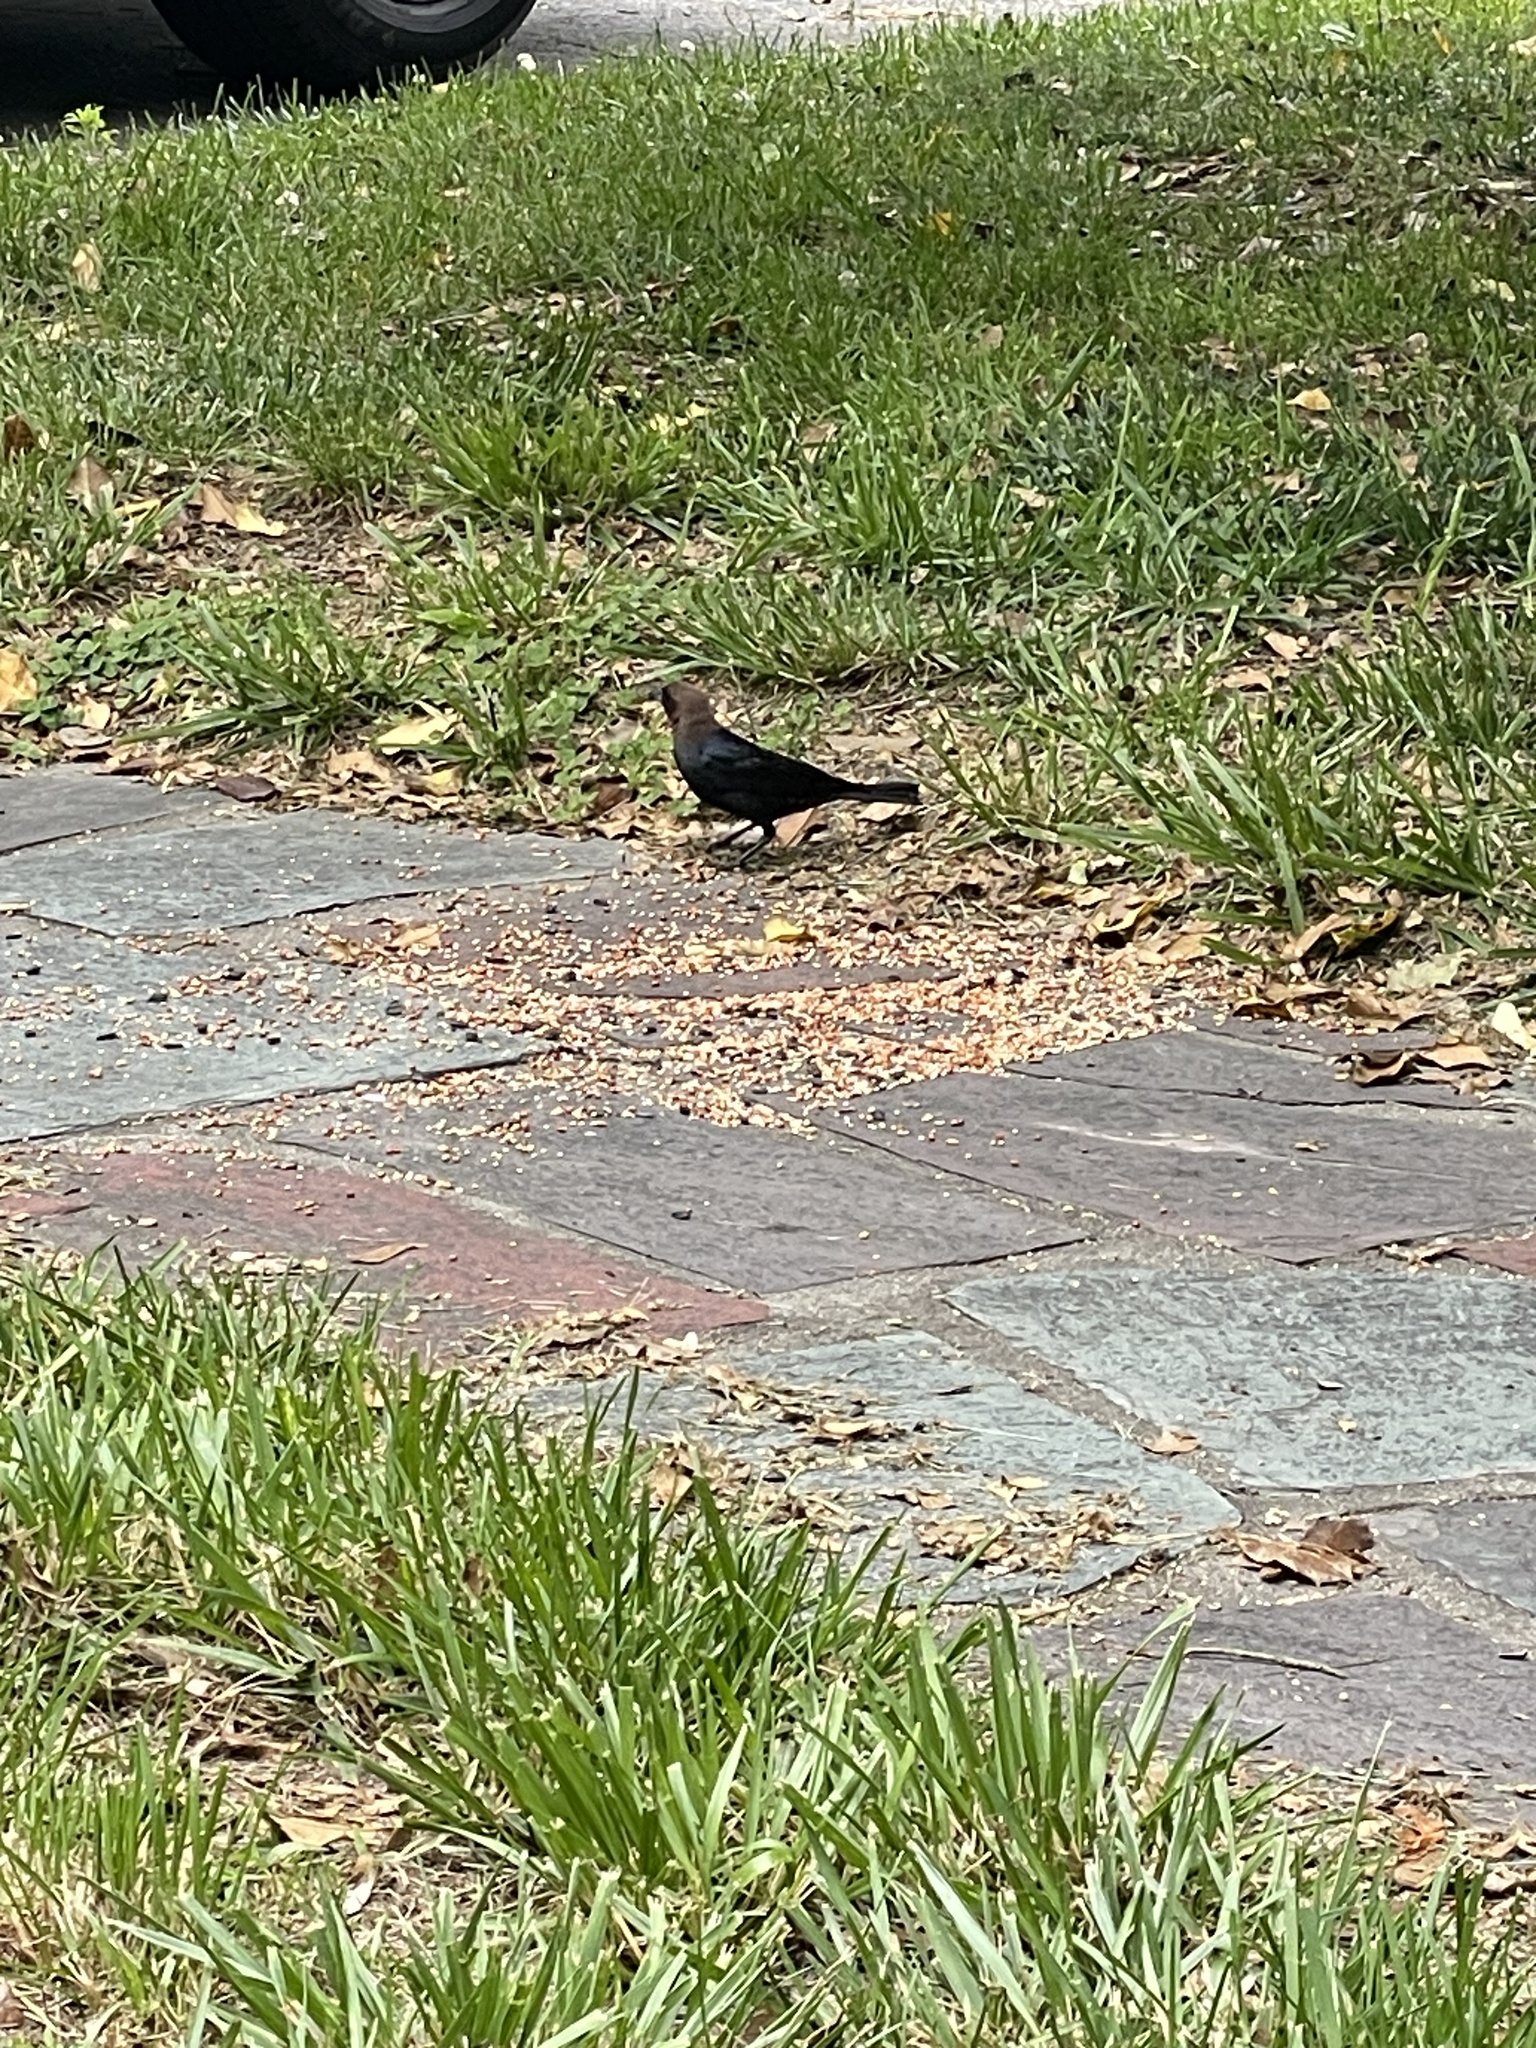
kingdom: Animalia
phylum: Chordata
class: Aves
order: Passeriformes
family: Icteridae
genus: Molothrus
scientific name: Molothrus ater
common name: Brown-headed cowbird
